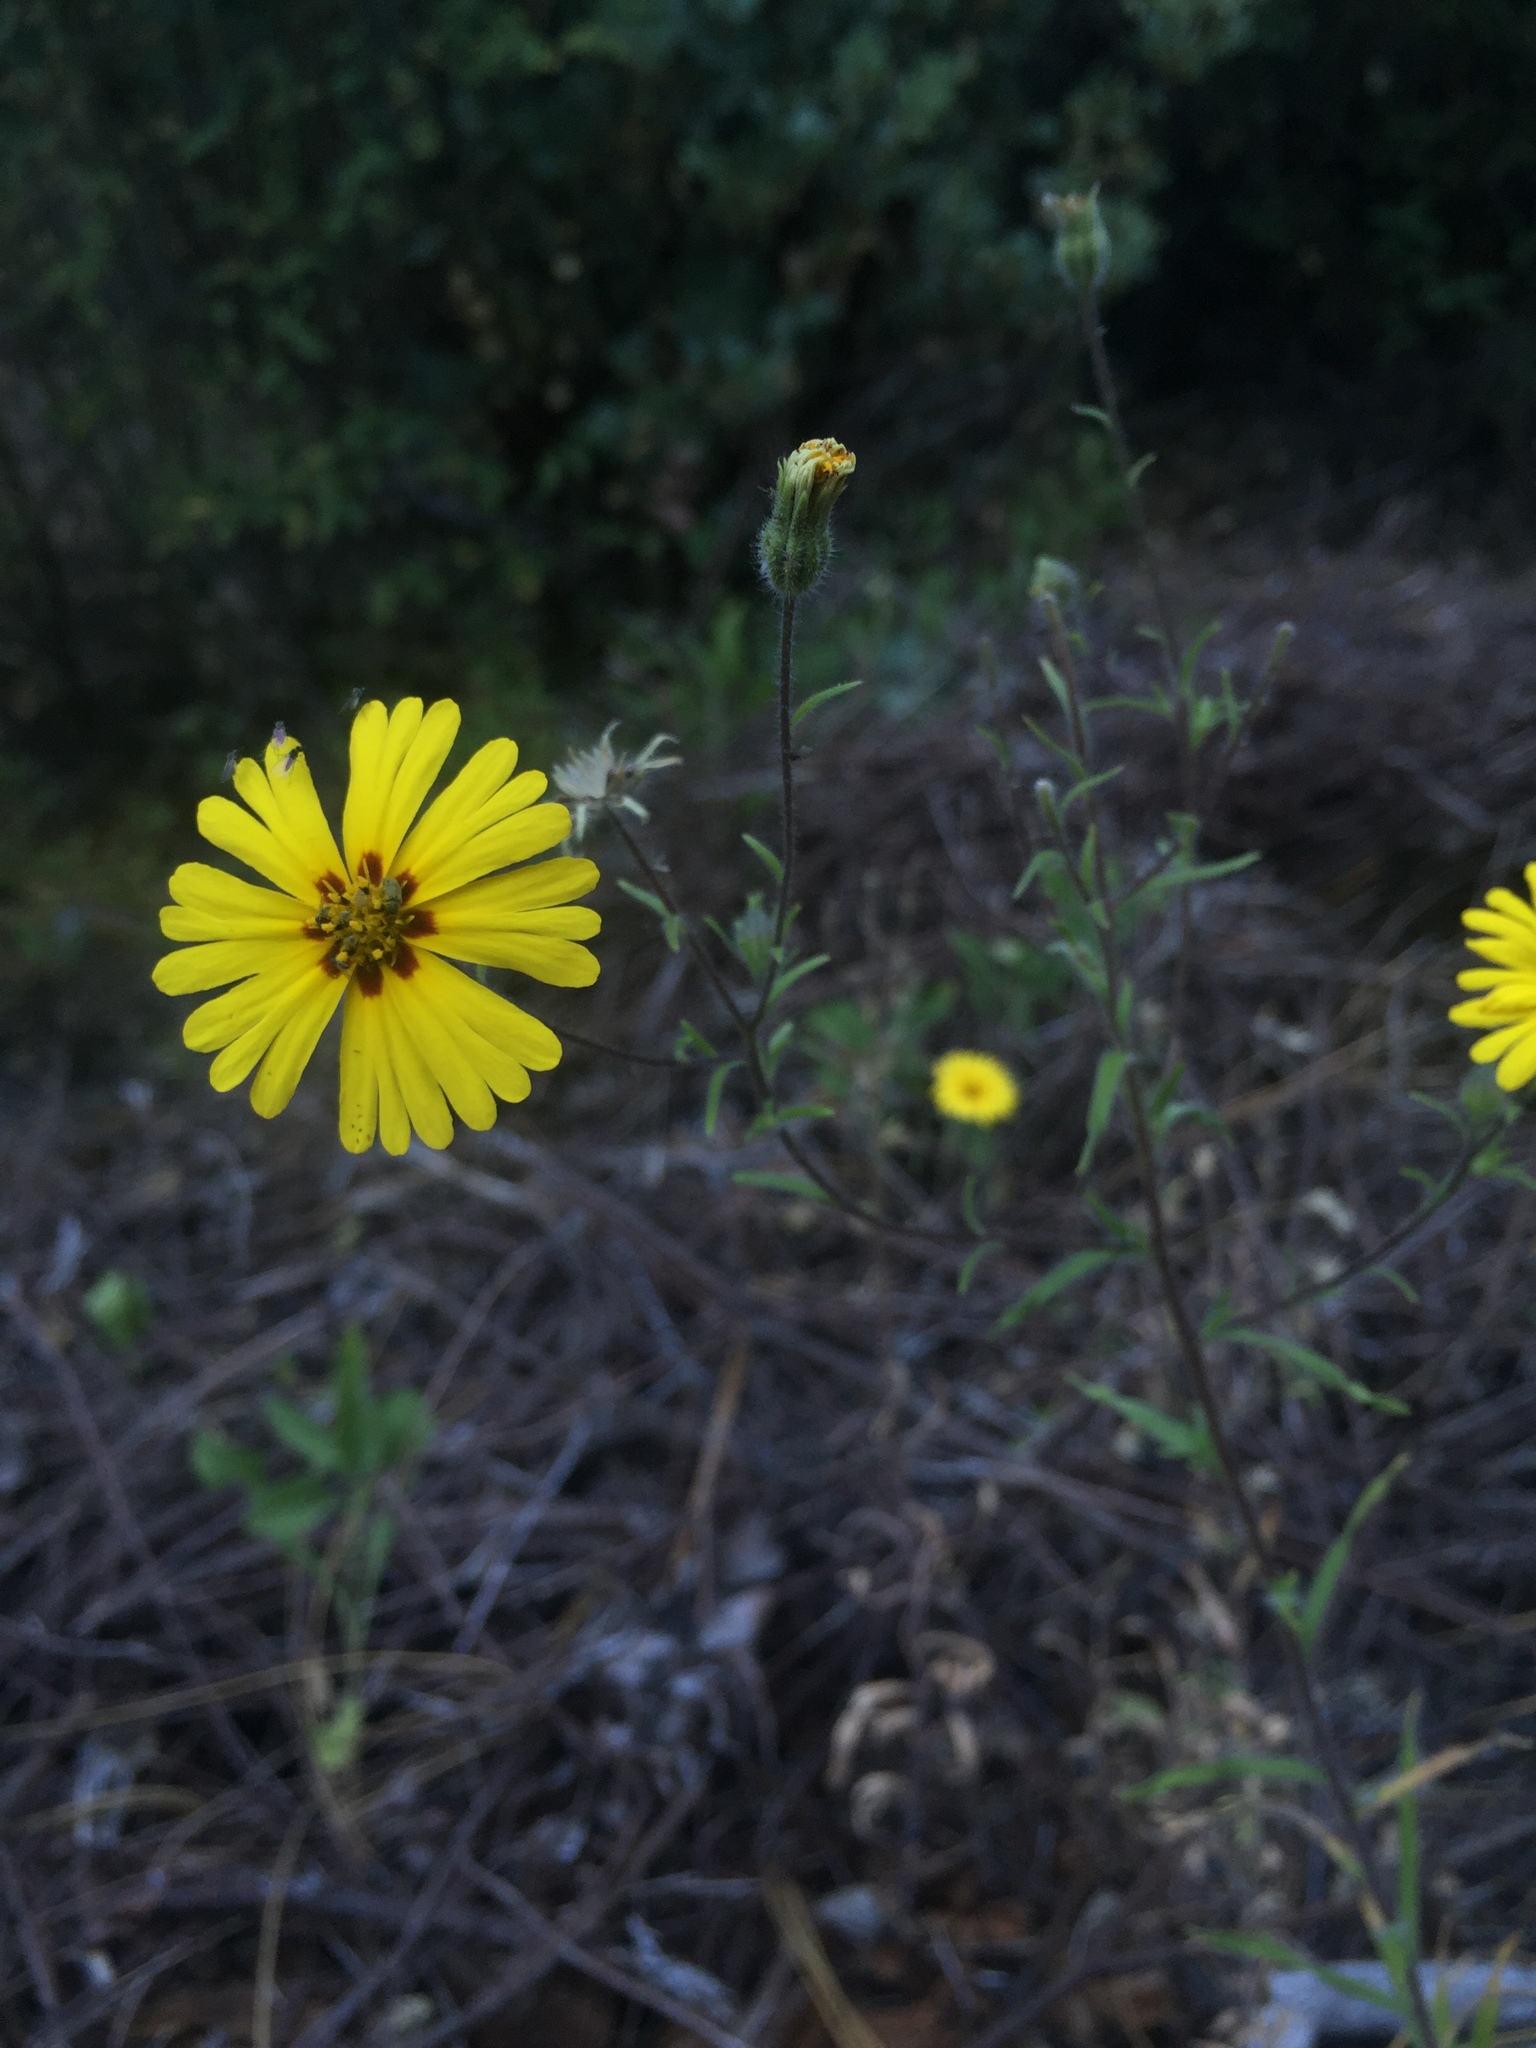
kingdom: Plantae
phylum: Tracheophyta
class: Magnoliopsida
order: Asterales
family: Asteraceae
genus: Madia
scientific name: Madia elegans
